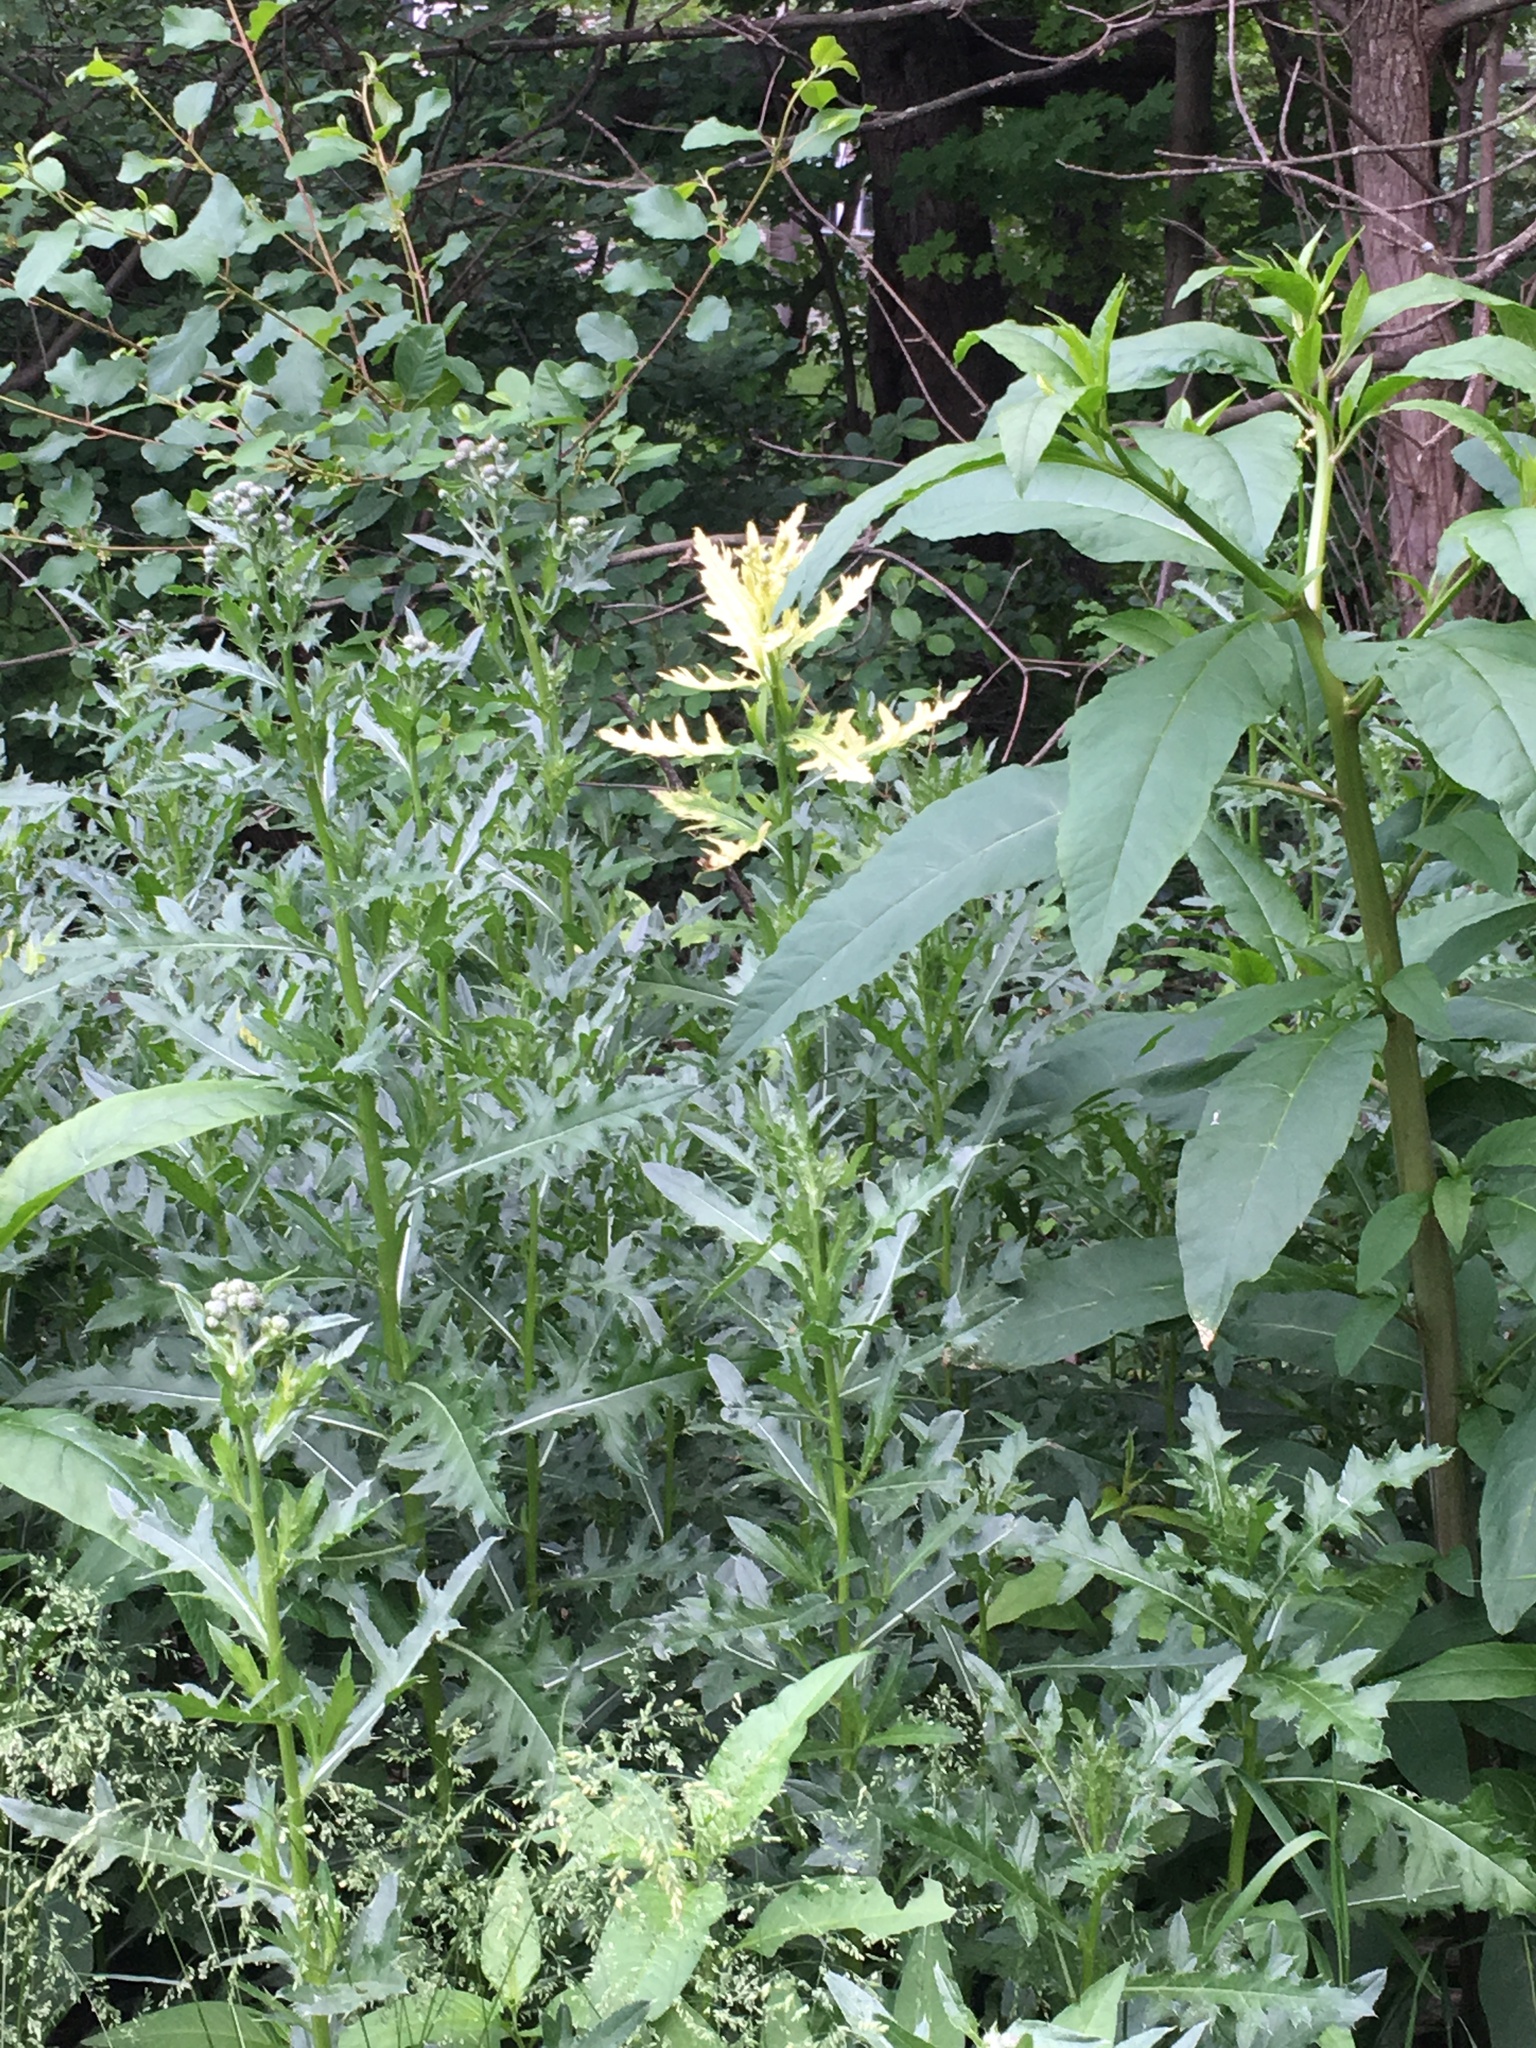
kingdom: Bacteria
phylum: Proteobacteria
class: Gammaproteobacteria
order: Pseudomonadales
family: Pseudomonadaceae
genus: Pseudomonas
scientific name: Pseudomonas syringae
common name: Bacterial speck
